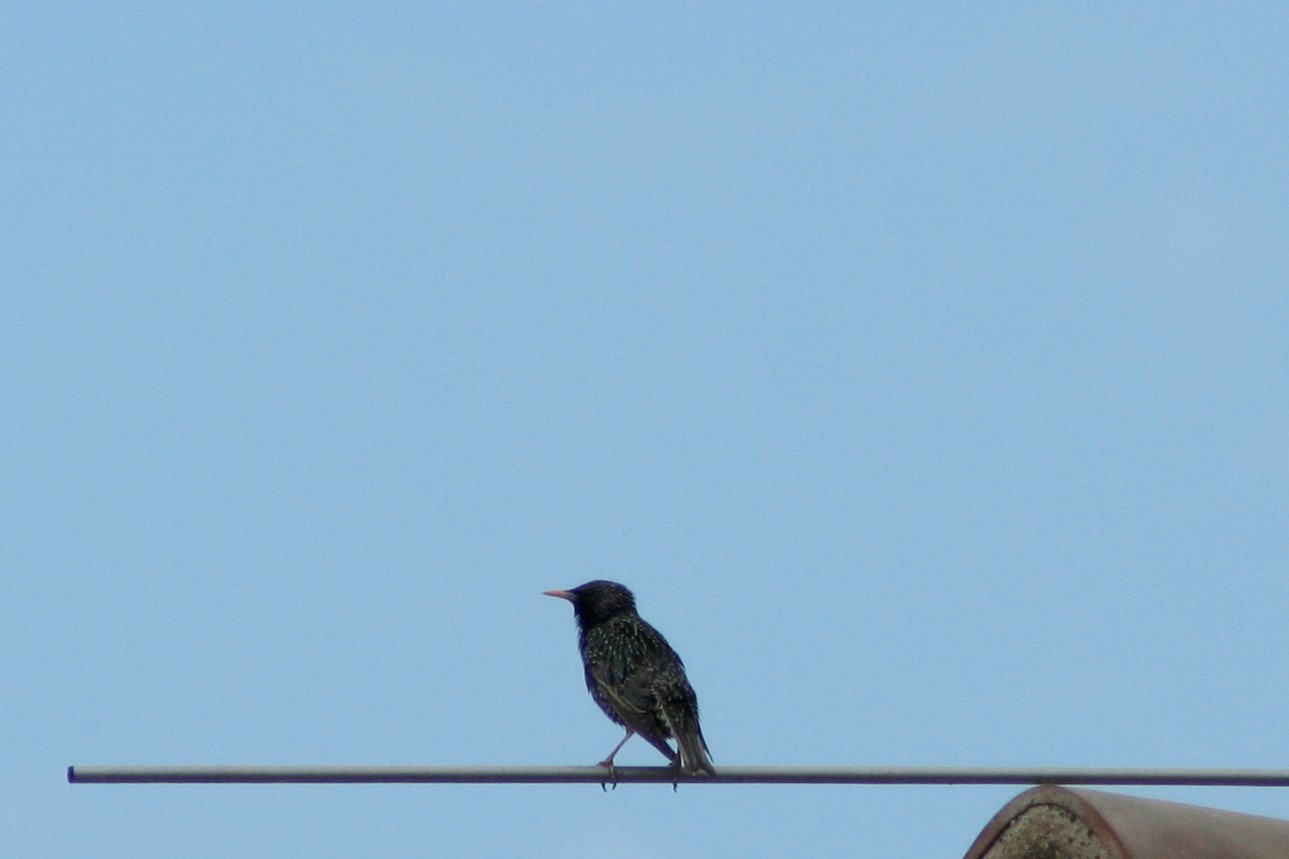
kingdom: Animalia
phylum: Chordata
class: Aves
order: Passeriformes
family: Sturnidae
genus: Sturnus
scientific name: Sturnus vulgaris
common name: Common starling
